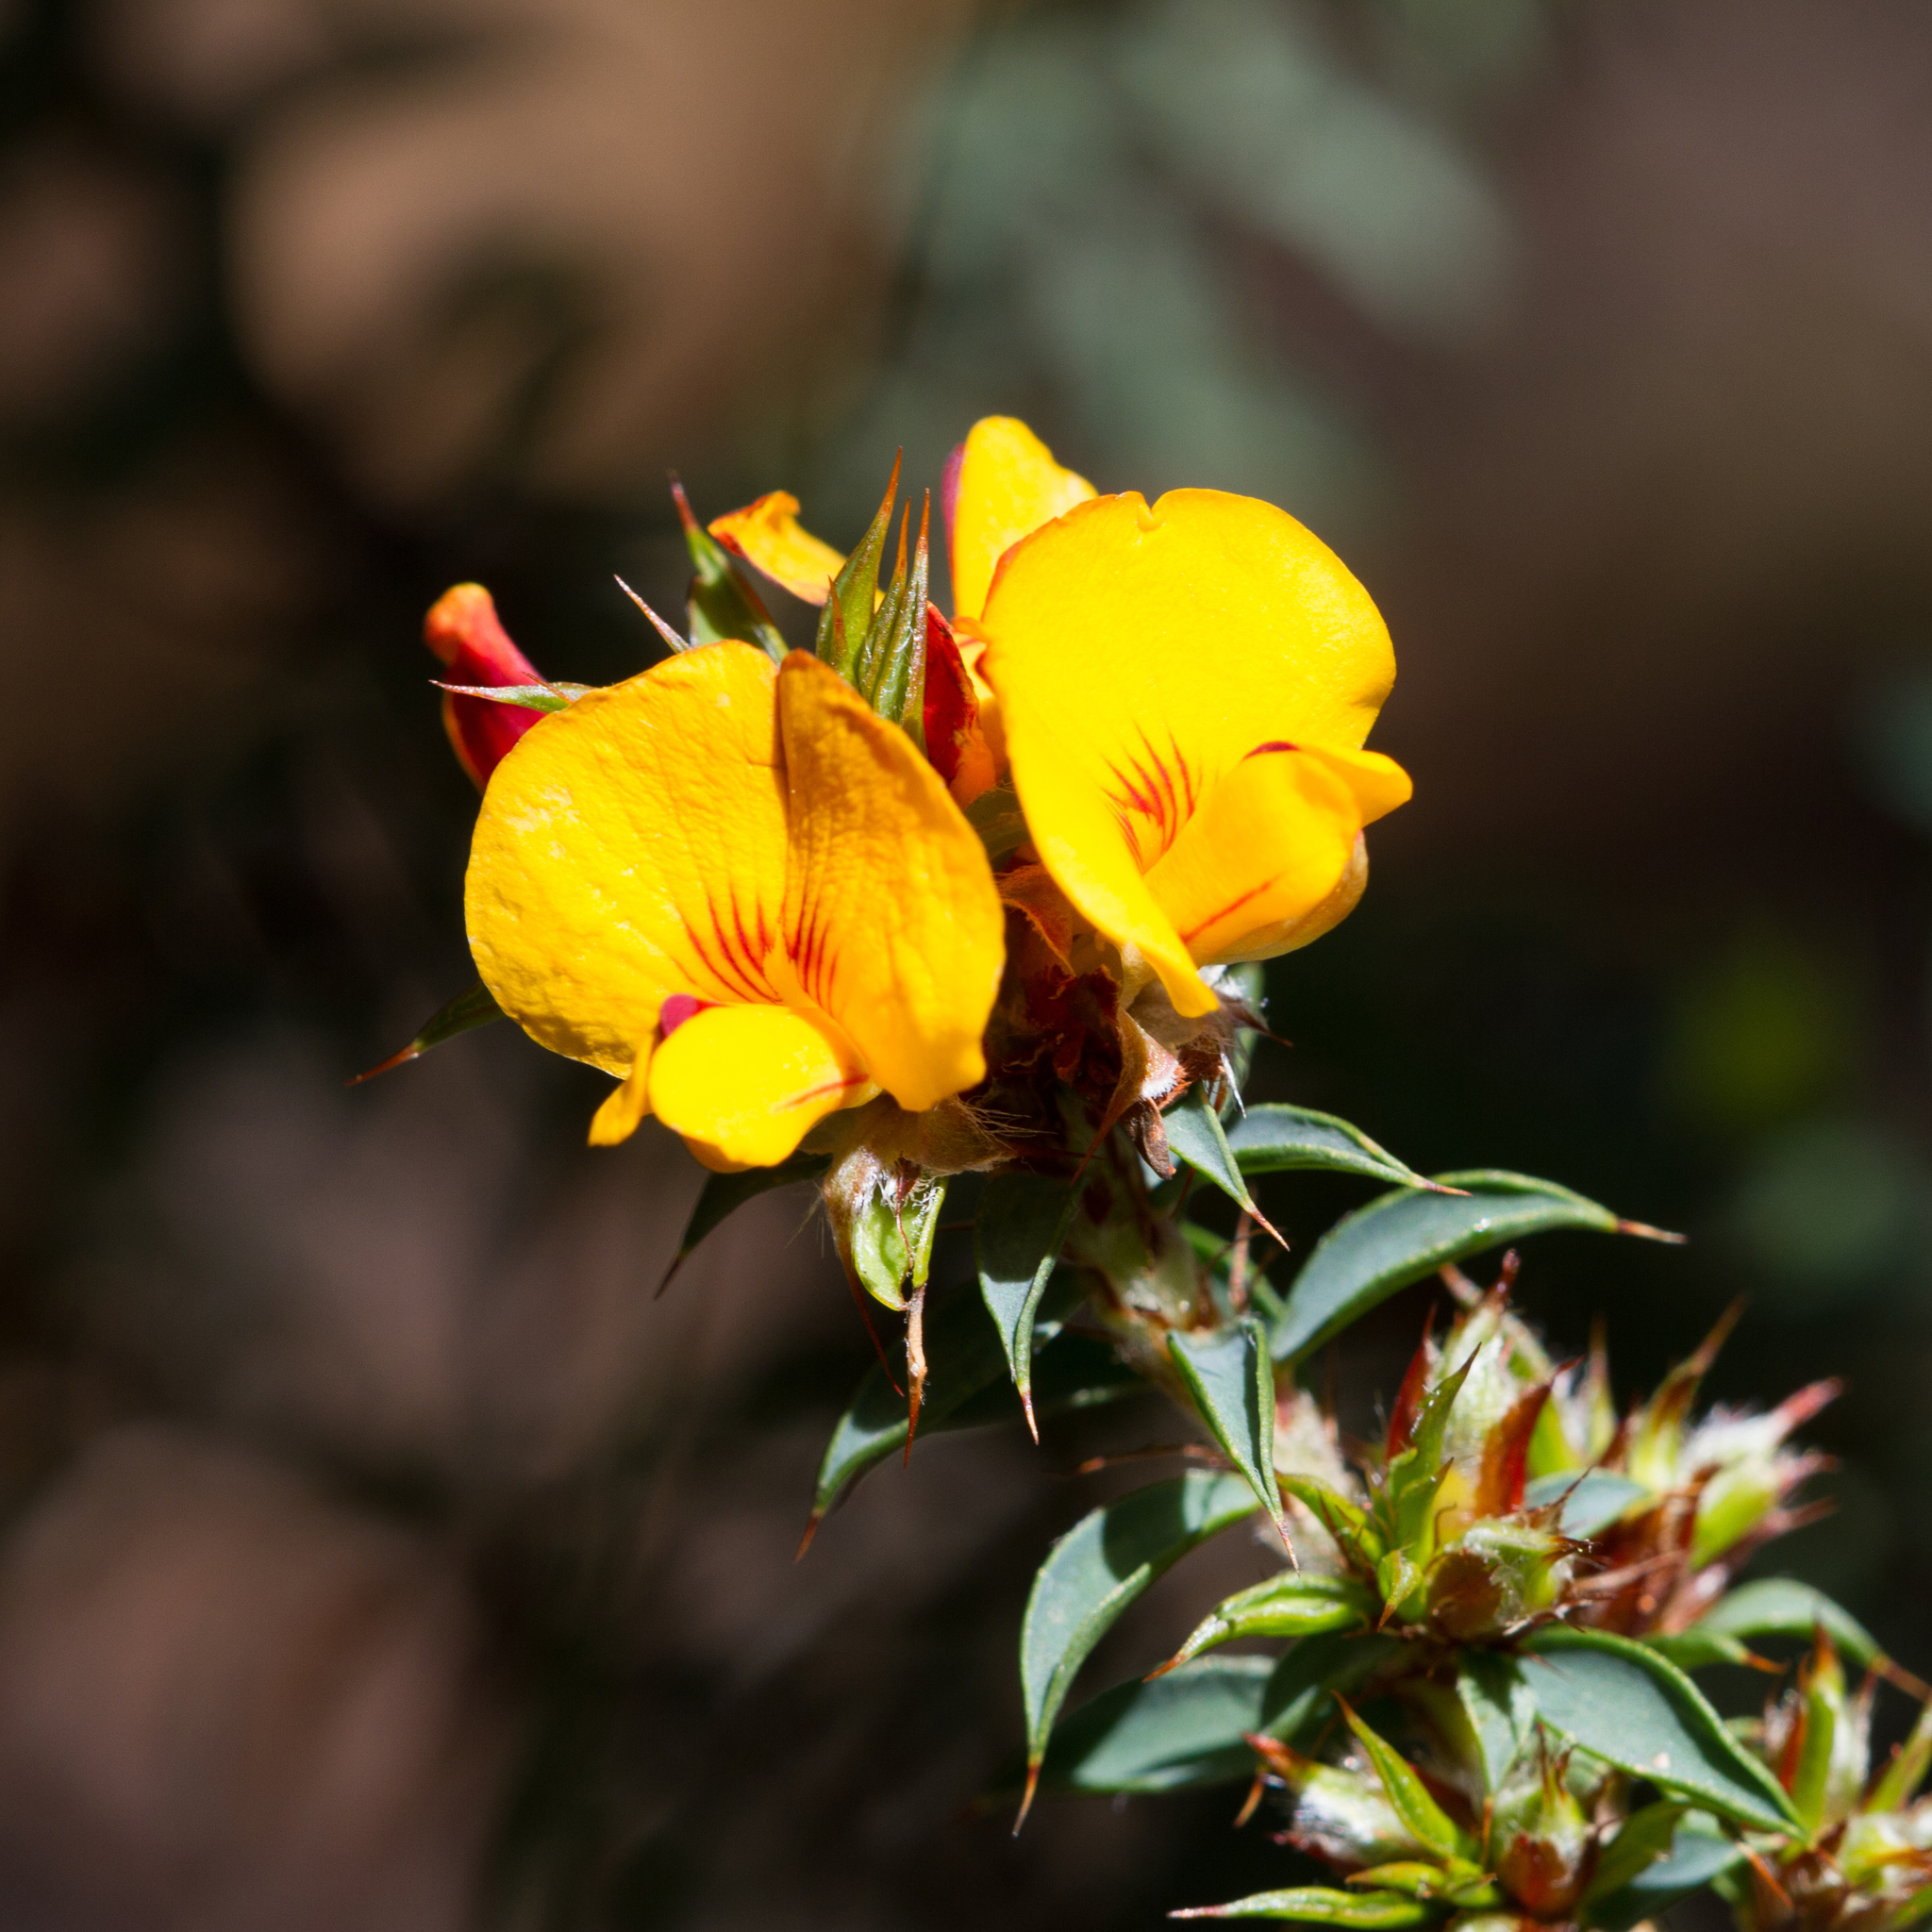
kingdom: Plantae
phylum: Tracheophyta
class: Magnoliopsida
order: Fabales
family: Fabaceae
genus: Pultenaea
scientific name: Pultenaea costata
